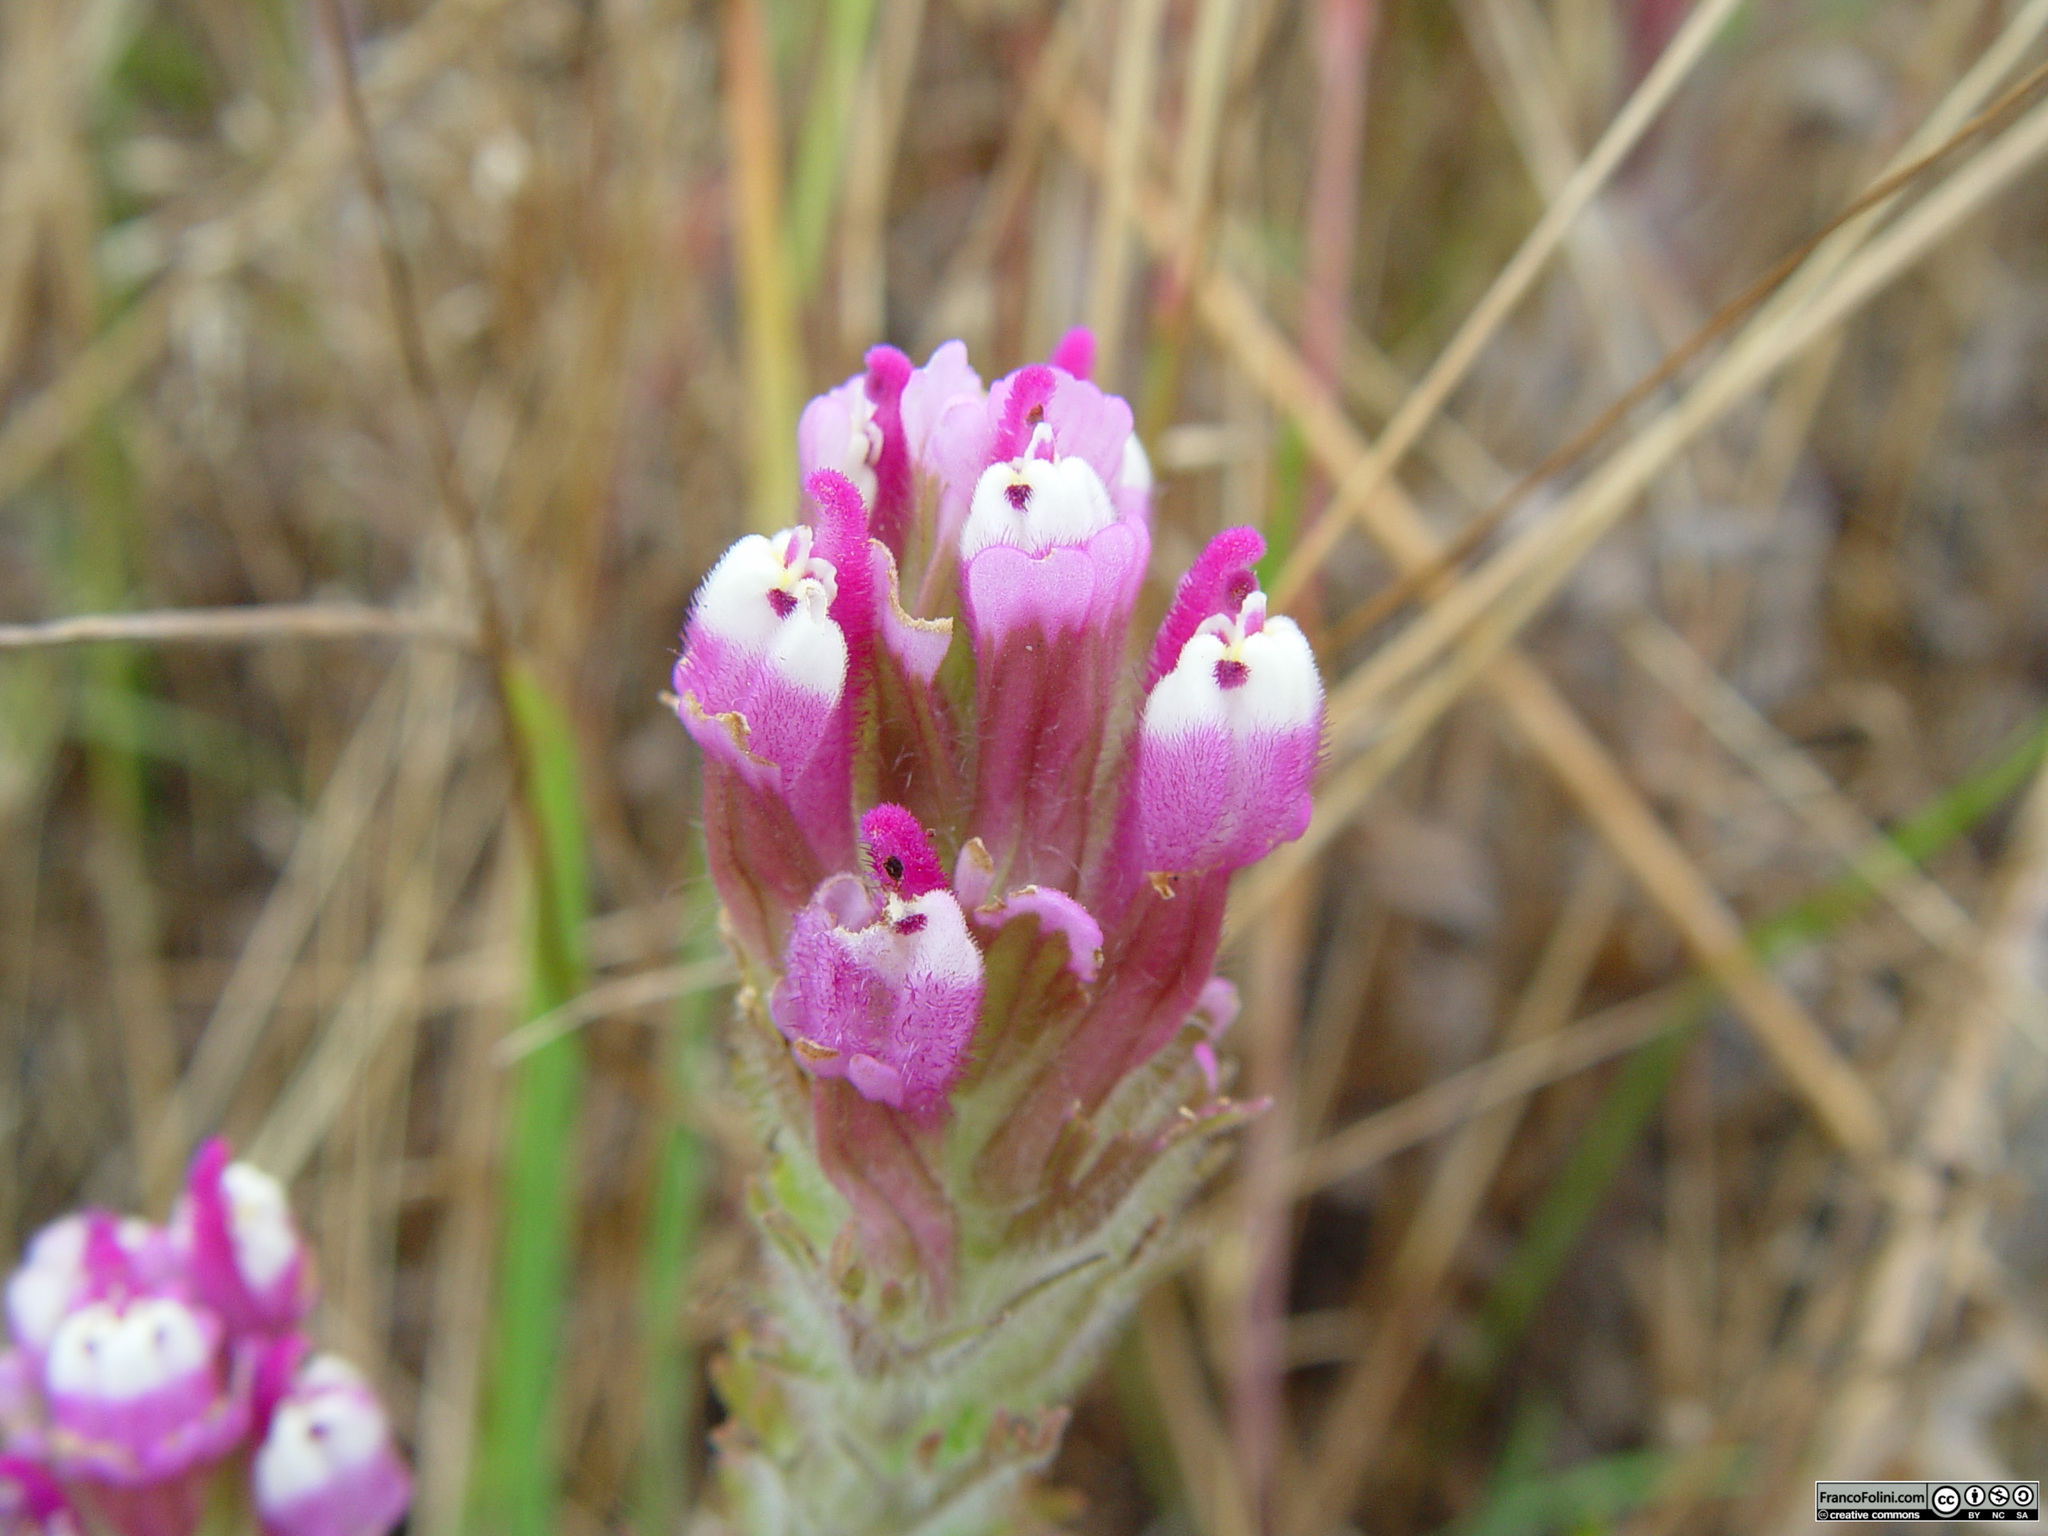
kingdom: Plantae
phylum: Tracheophyta
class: Magnoliopsida
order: Lamiales
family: Orobanchaceae
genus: Castilleja
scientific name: Castilleja exserta
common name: Purple owl-clover
